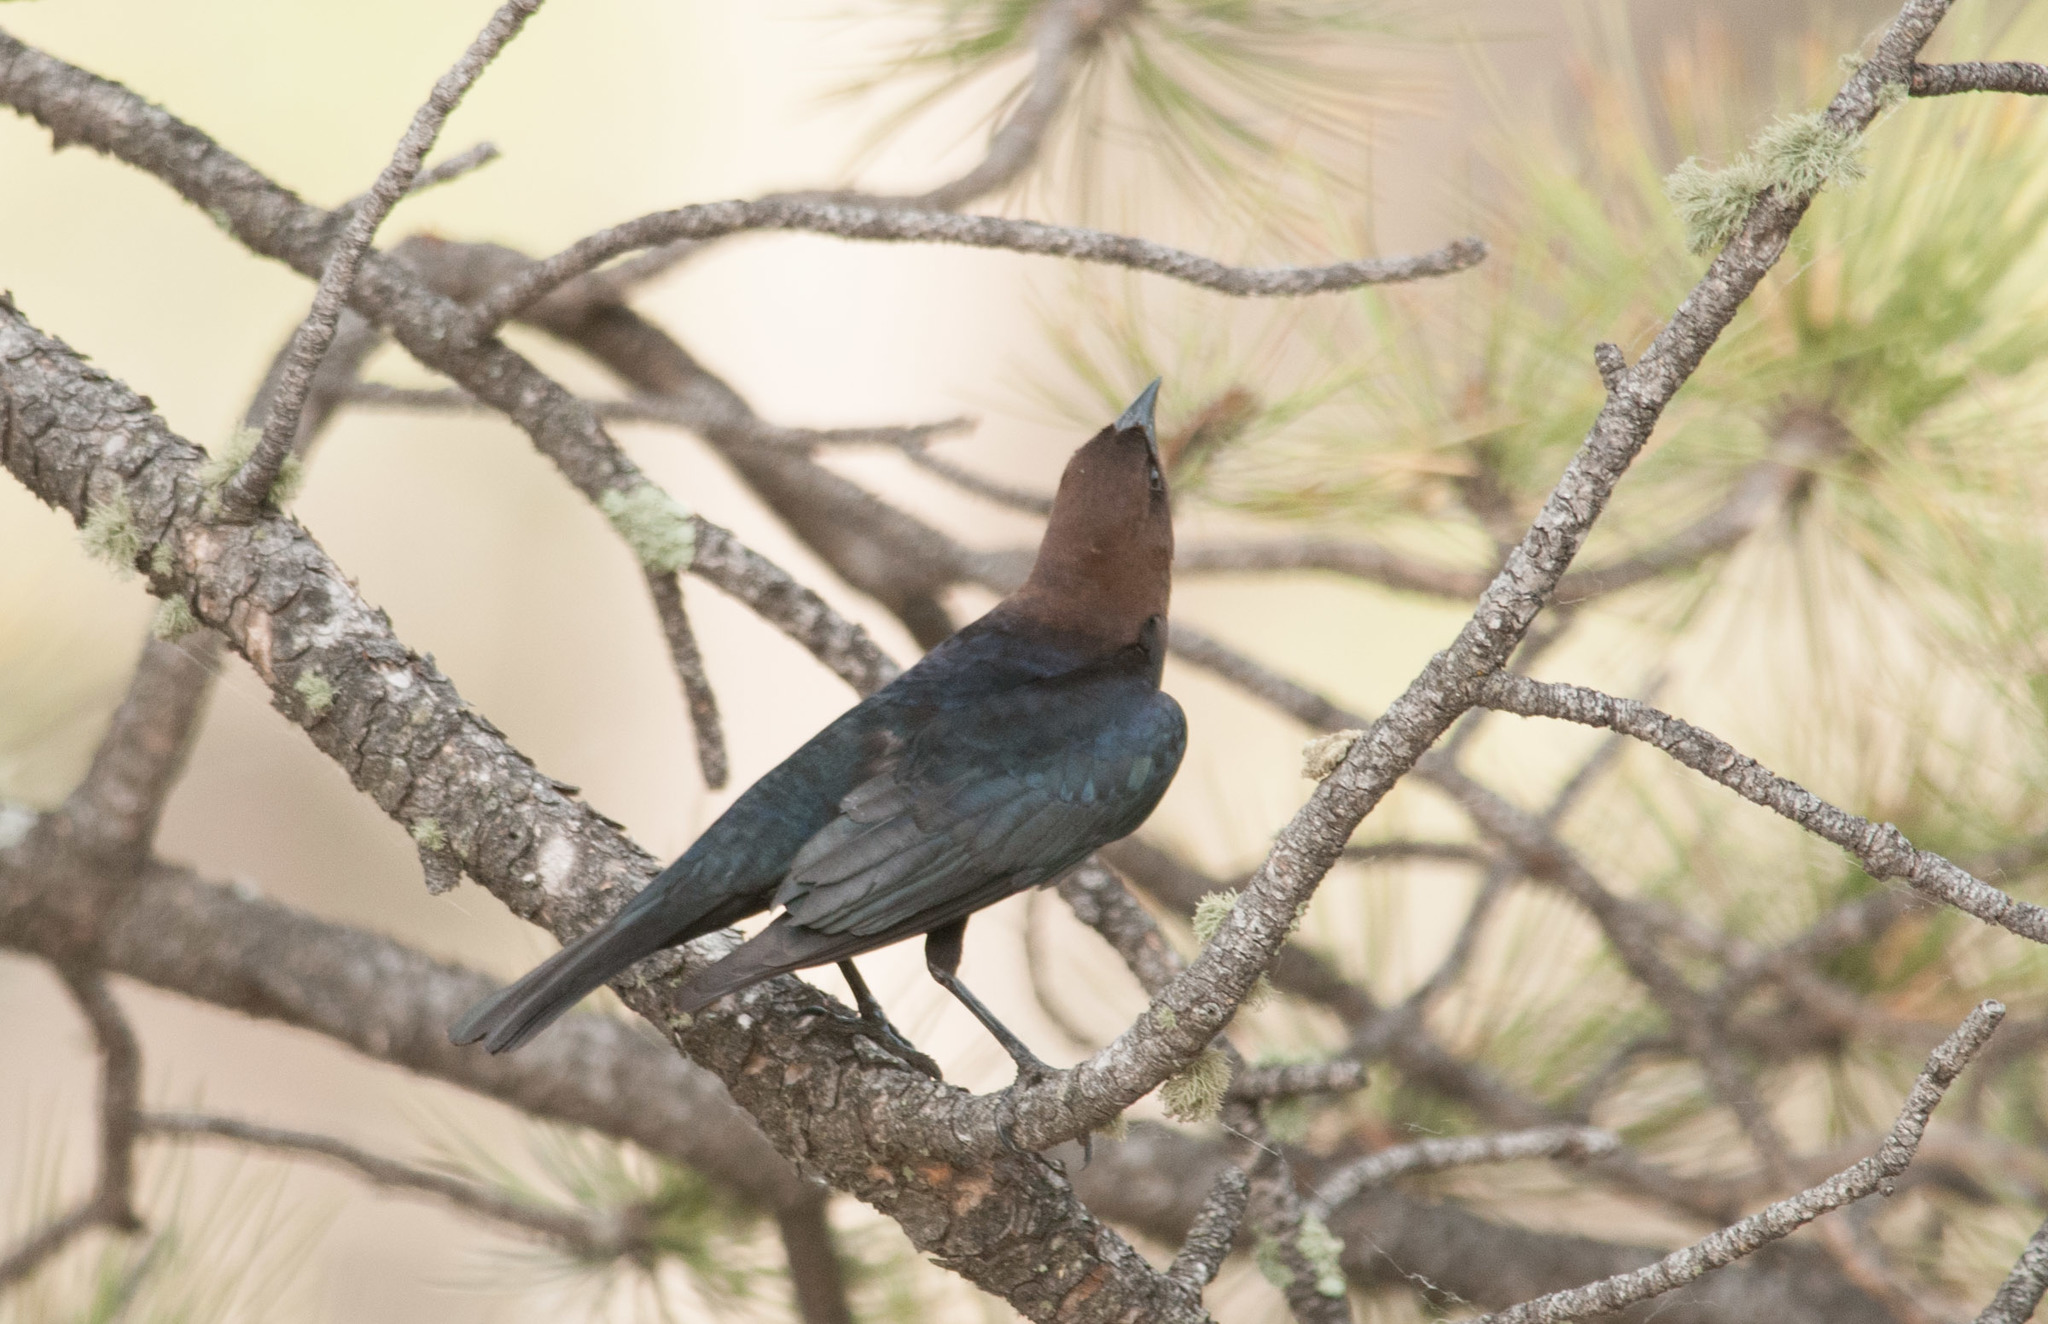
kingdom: Animalia
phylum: Chordata
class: Aves
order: Passeriformes
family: Icteridae
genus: Molothrus
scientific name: Molothrus ater
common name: Brown-headed cowbird
